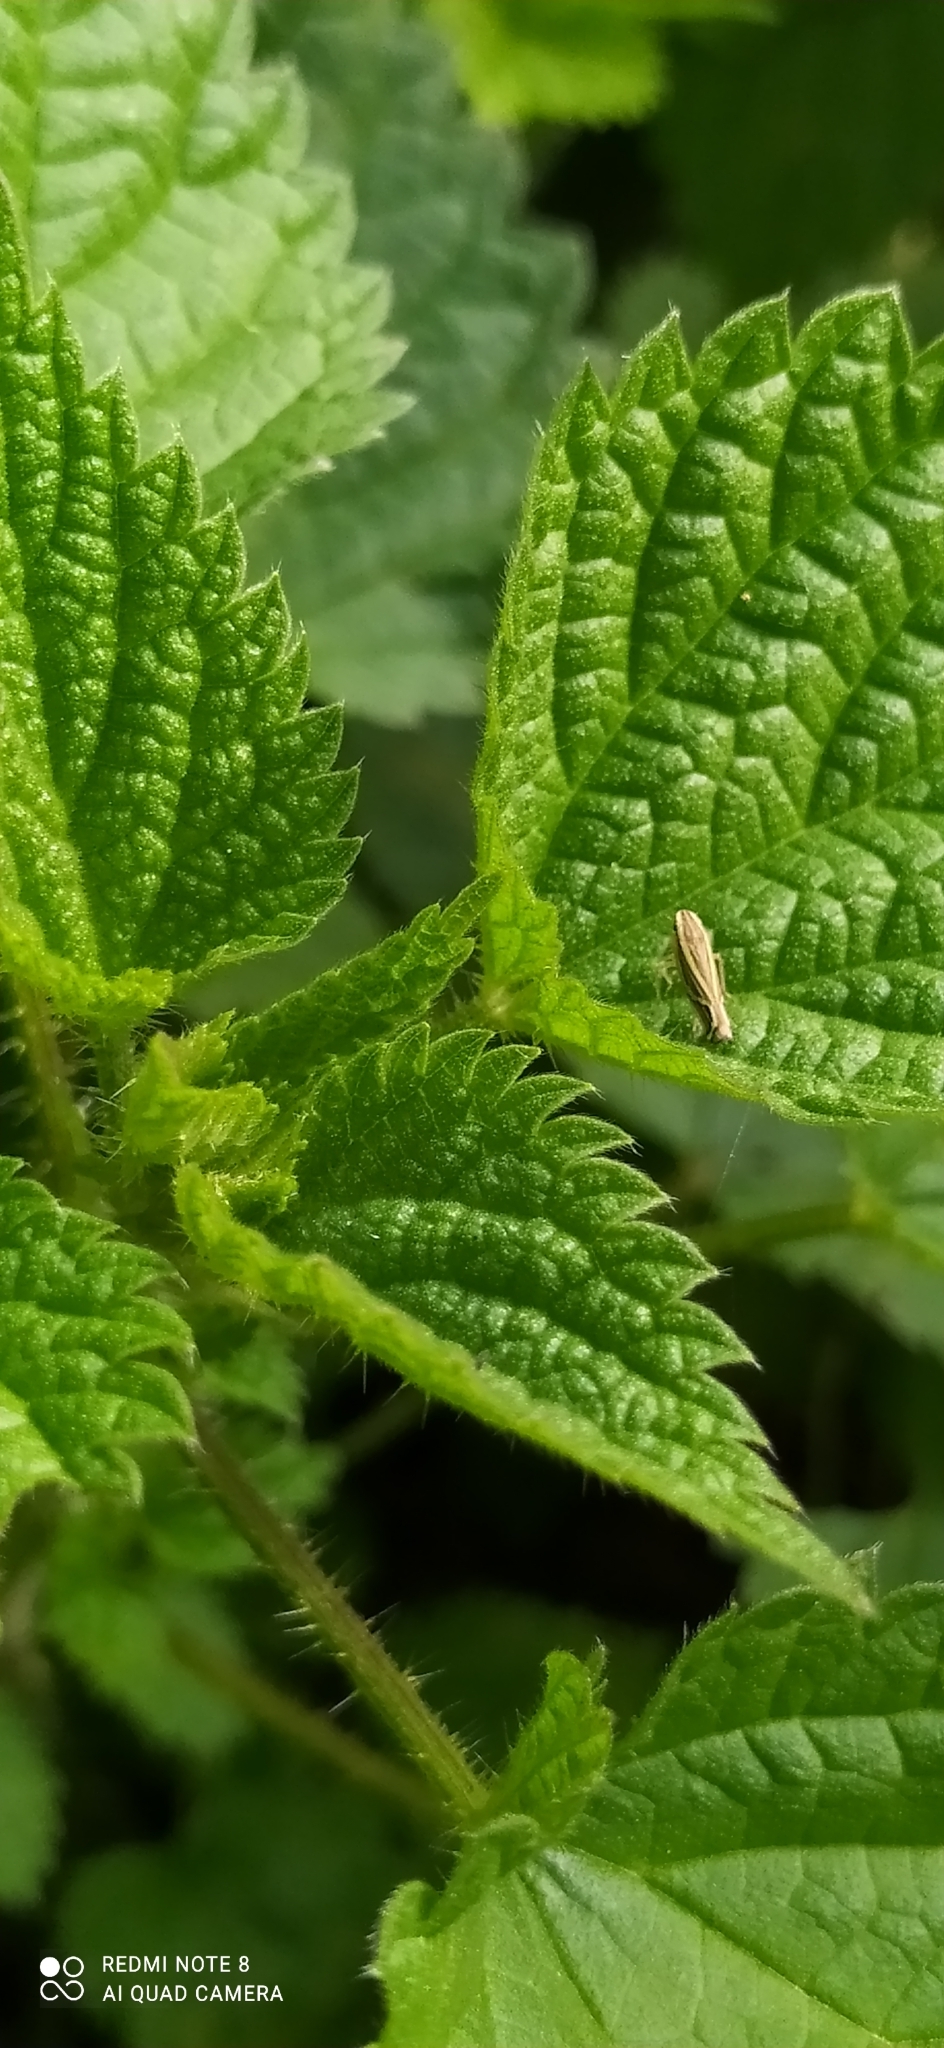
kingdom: Animalia
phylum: Arthropoda
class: Insecta
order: Hemiptera
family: Cicadellidae
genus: Sibovia
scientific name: Sibovia sagata
